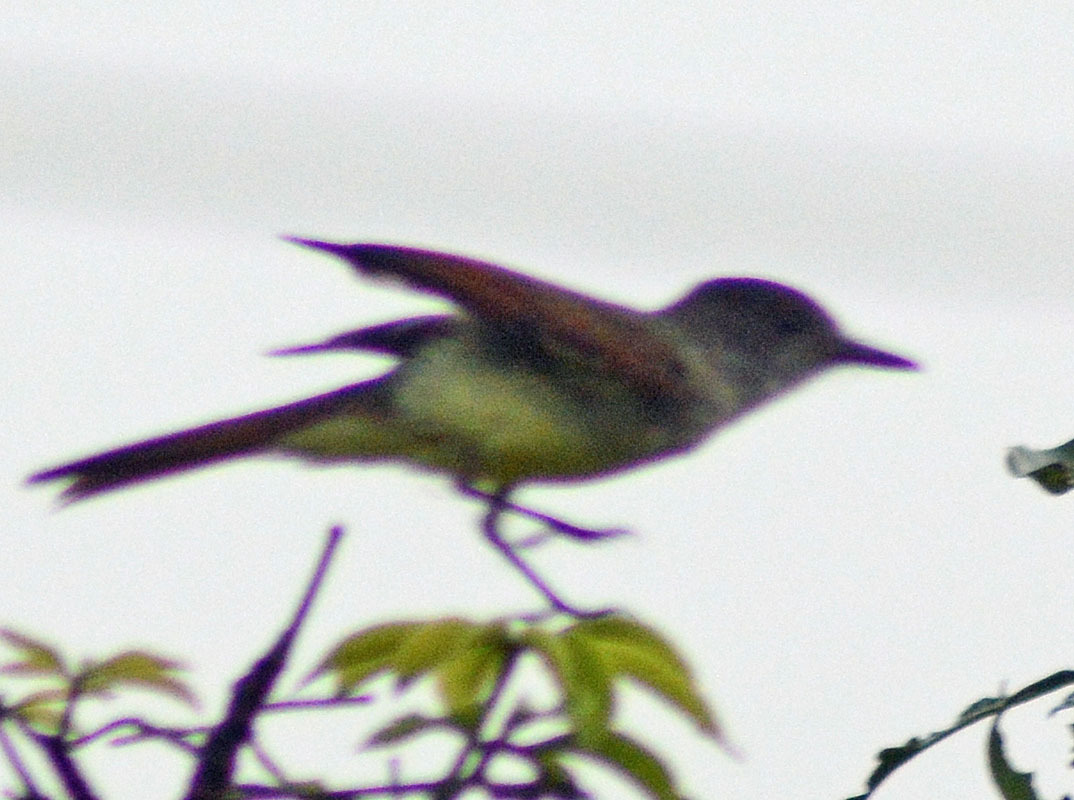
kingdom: Animalia
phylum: Chordata
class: Aves
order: Passeriformes
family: Tyrannidae
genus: Myiarchus
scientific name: Myiarchus tuberculifer
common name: Dusky-capped flycatcher
